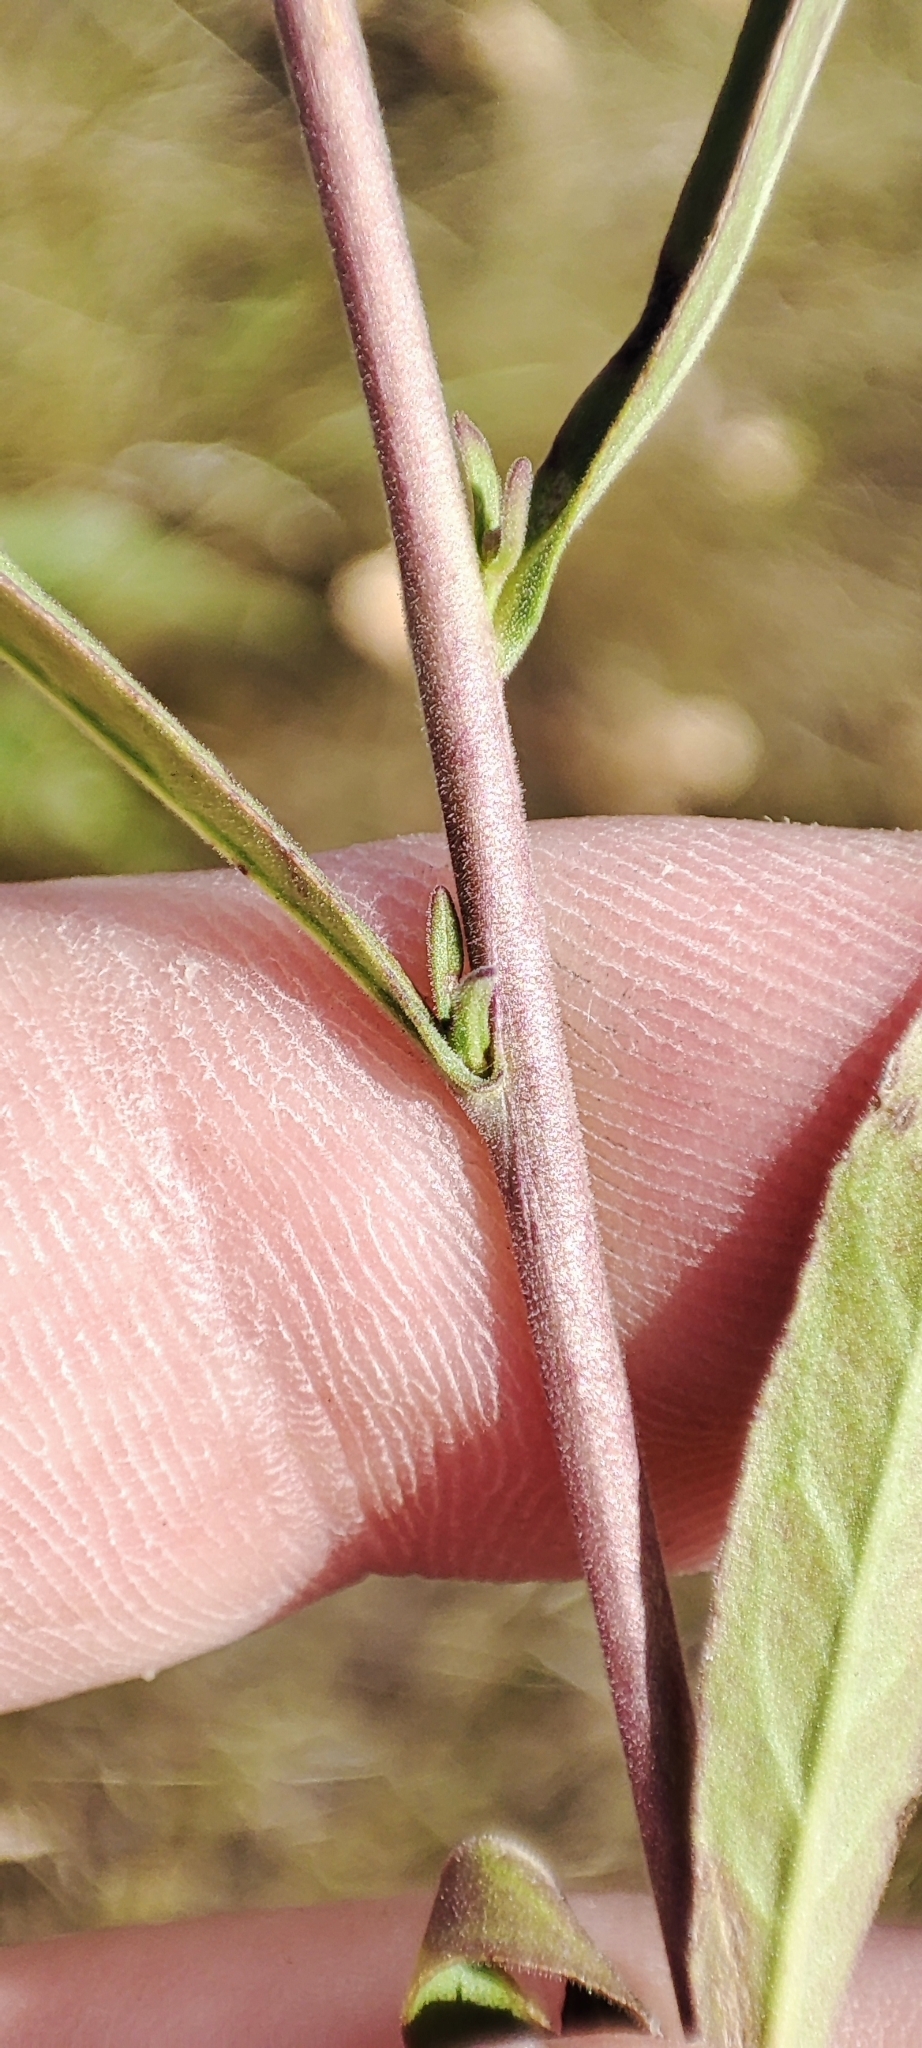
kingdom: Plantae
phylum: Tracheophyta
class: Magnoliopsida
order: Lamiales
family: Plantaginaceae
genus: Veronica
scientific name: Veronica spicata
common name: Spiked speedwell
